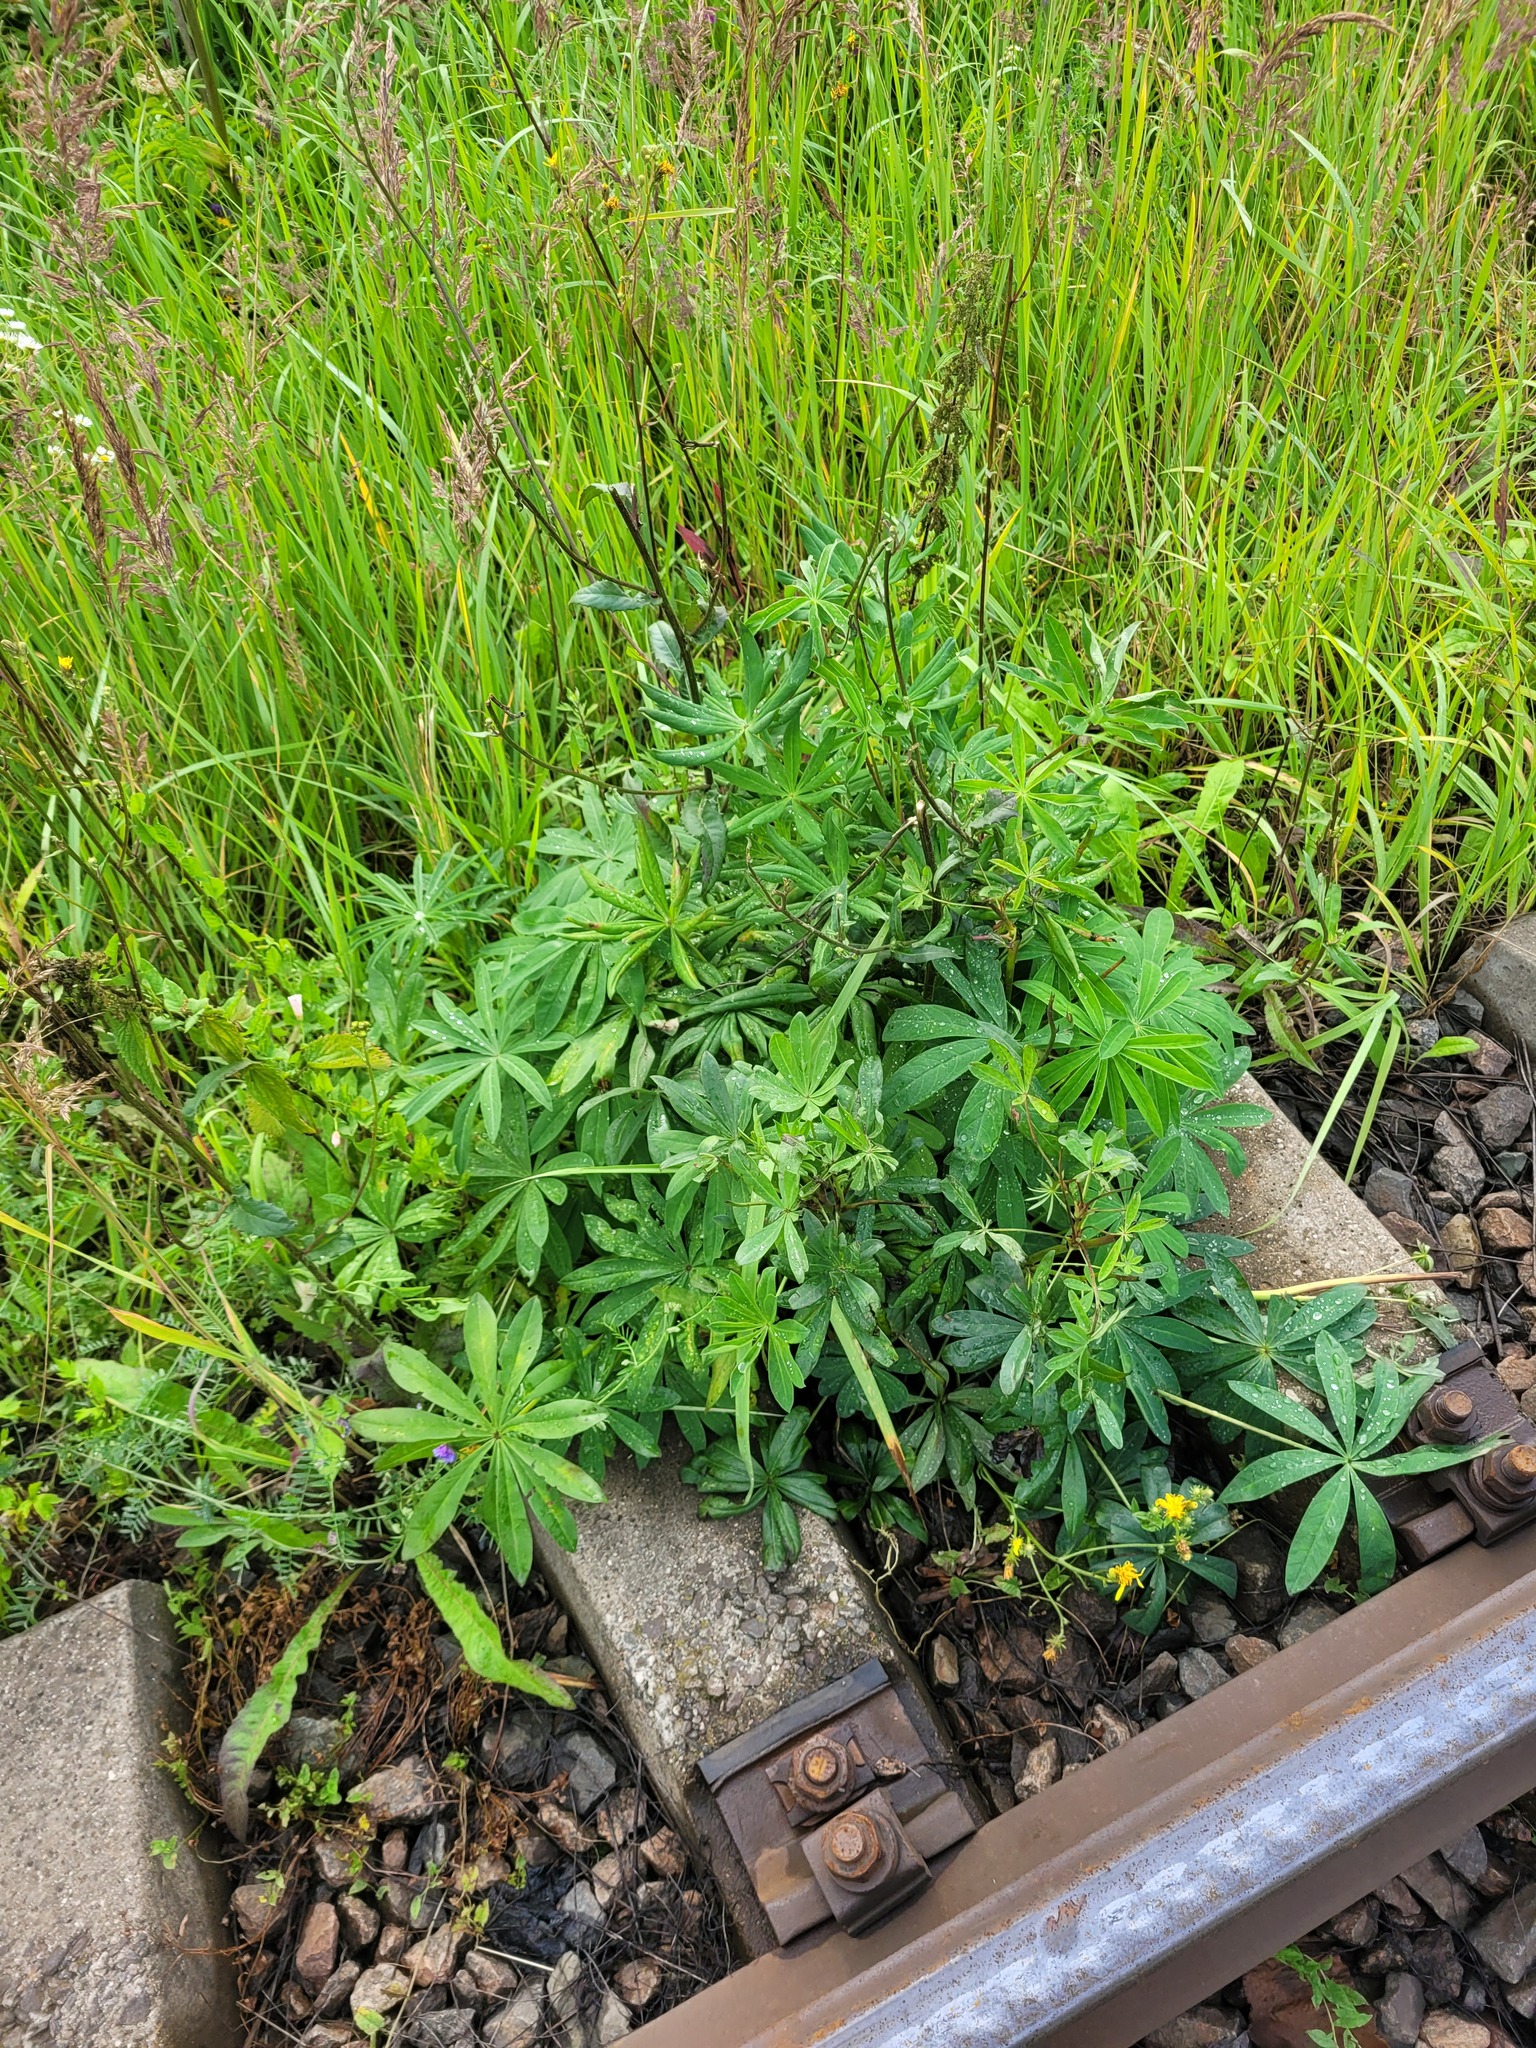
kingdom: Plantae
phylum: Tracheophyta
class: Magnoliopsida
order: Fabales
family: Fabaceae
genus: Lupinus
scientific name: Lupinus polyphyllus
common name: Garden lupin
